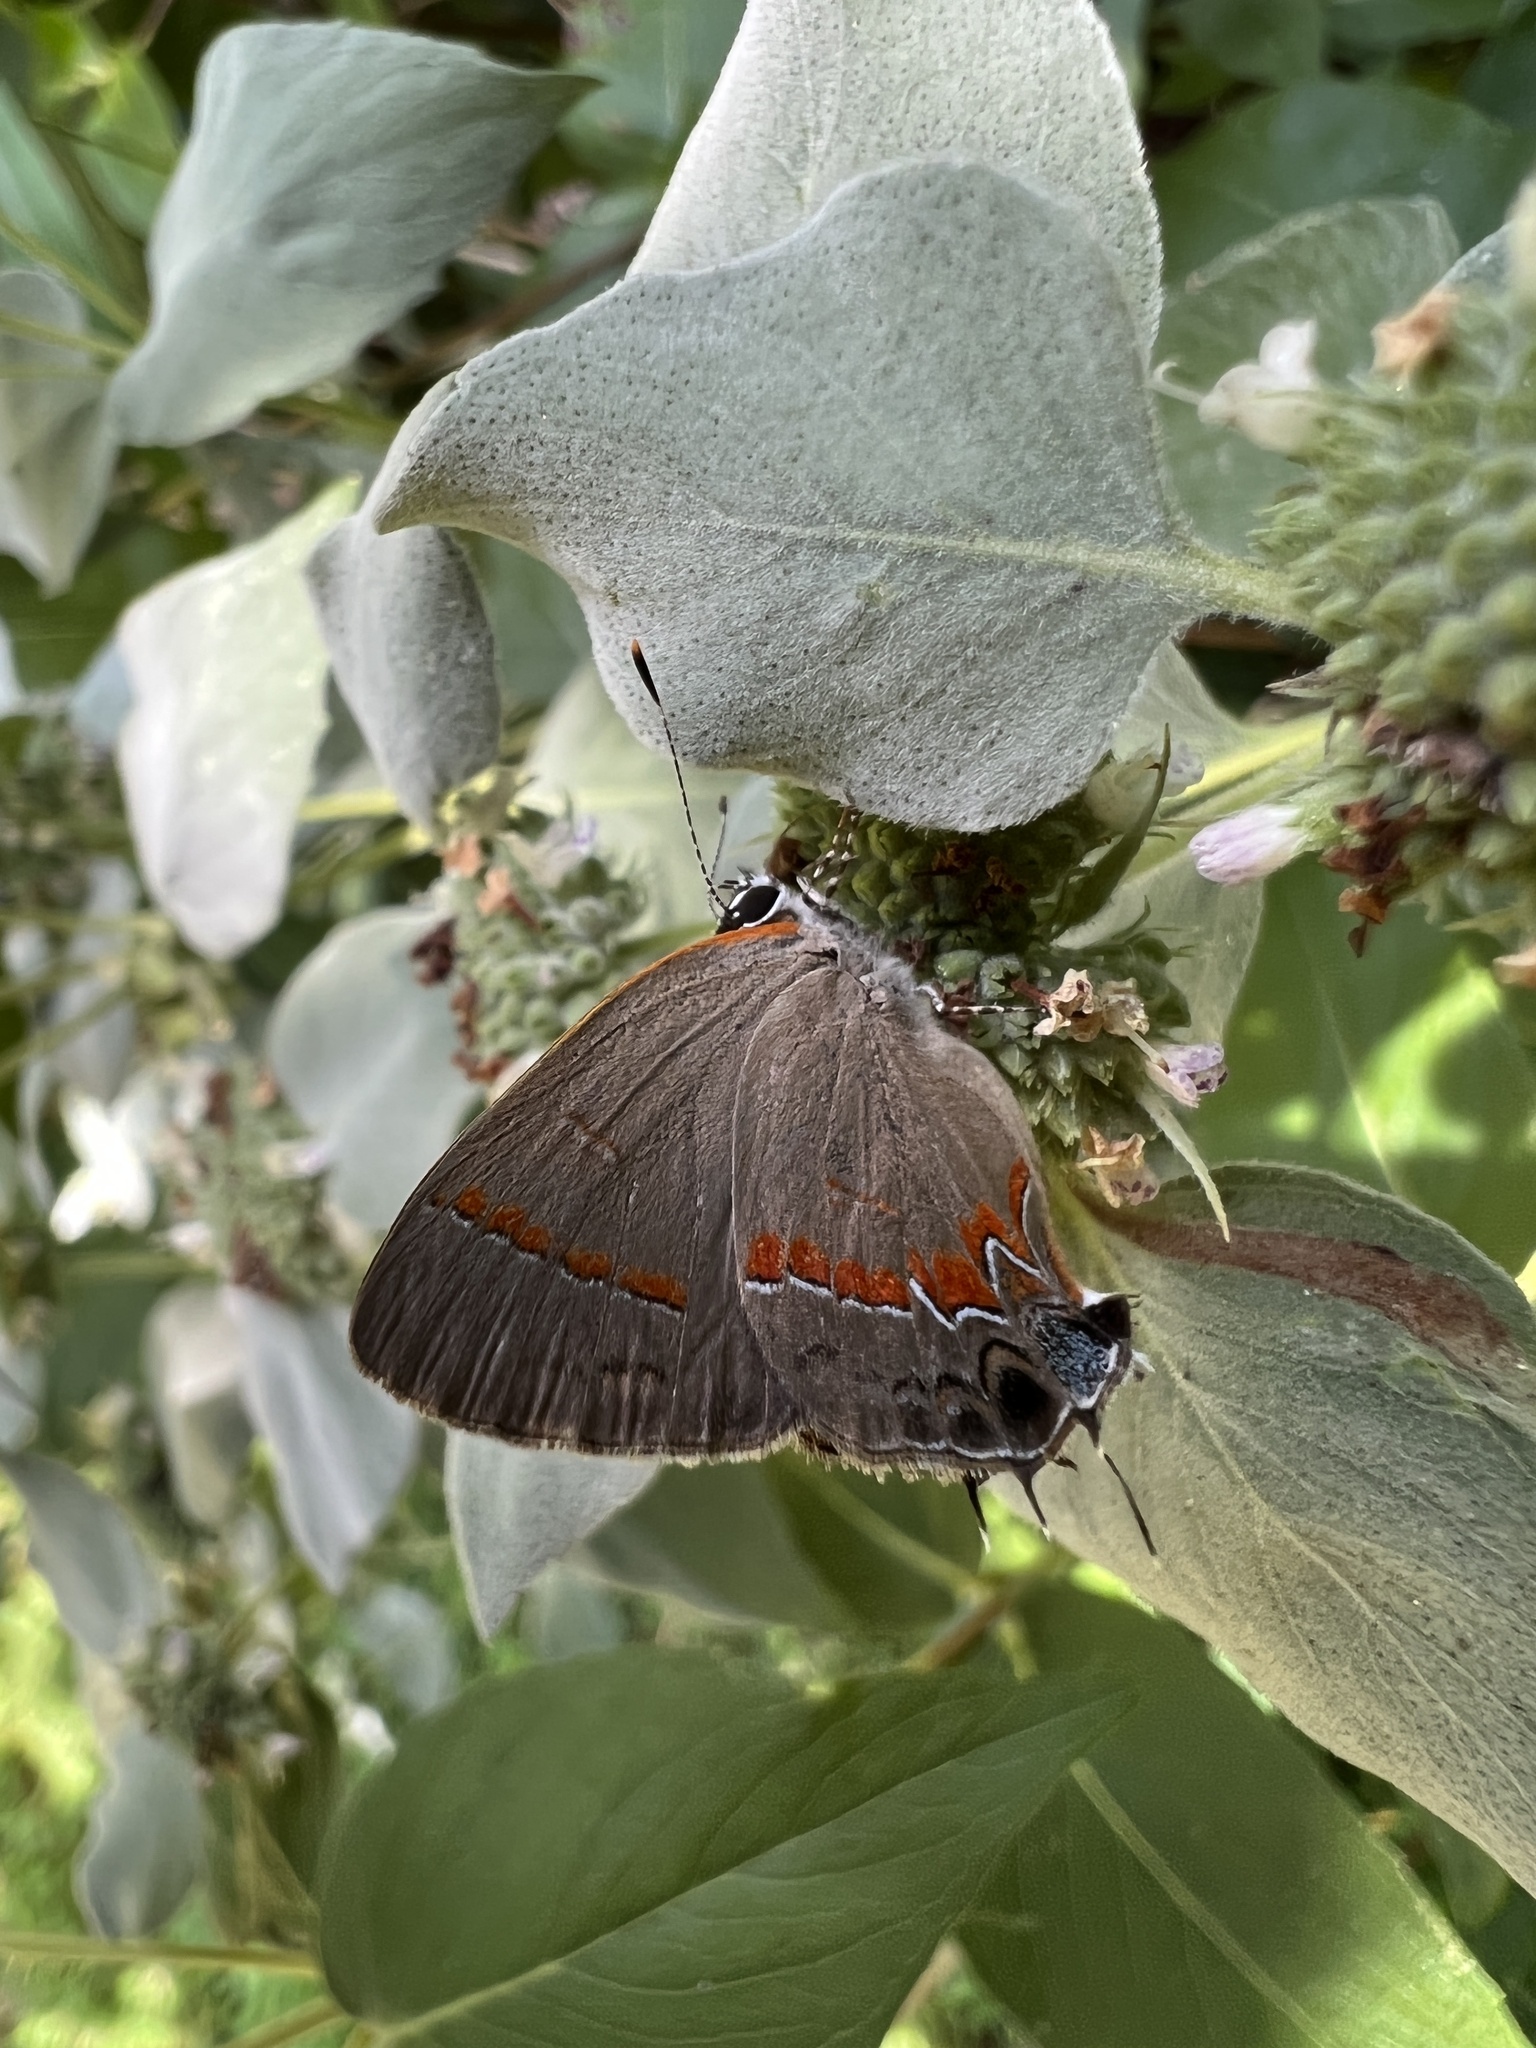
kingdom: Animalia
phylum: Arthropoda
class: Insecta
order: Lepidoptera
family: Lycaenidae
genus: Calycopis
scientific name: Calycopis cecrops
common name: Red-banded hairstreak
